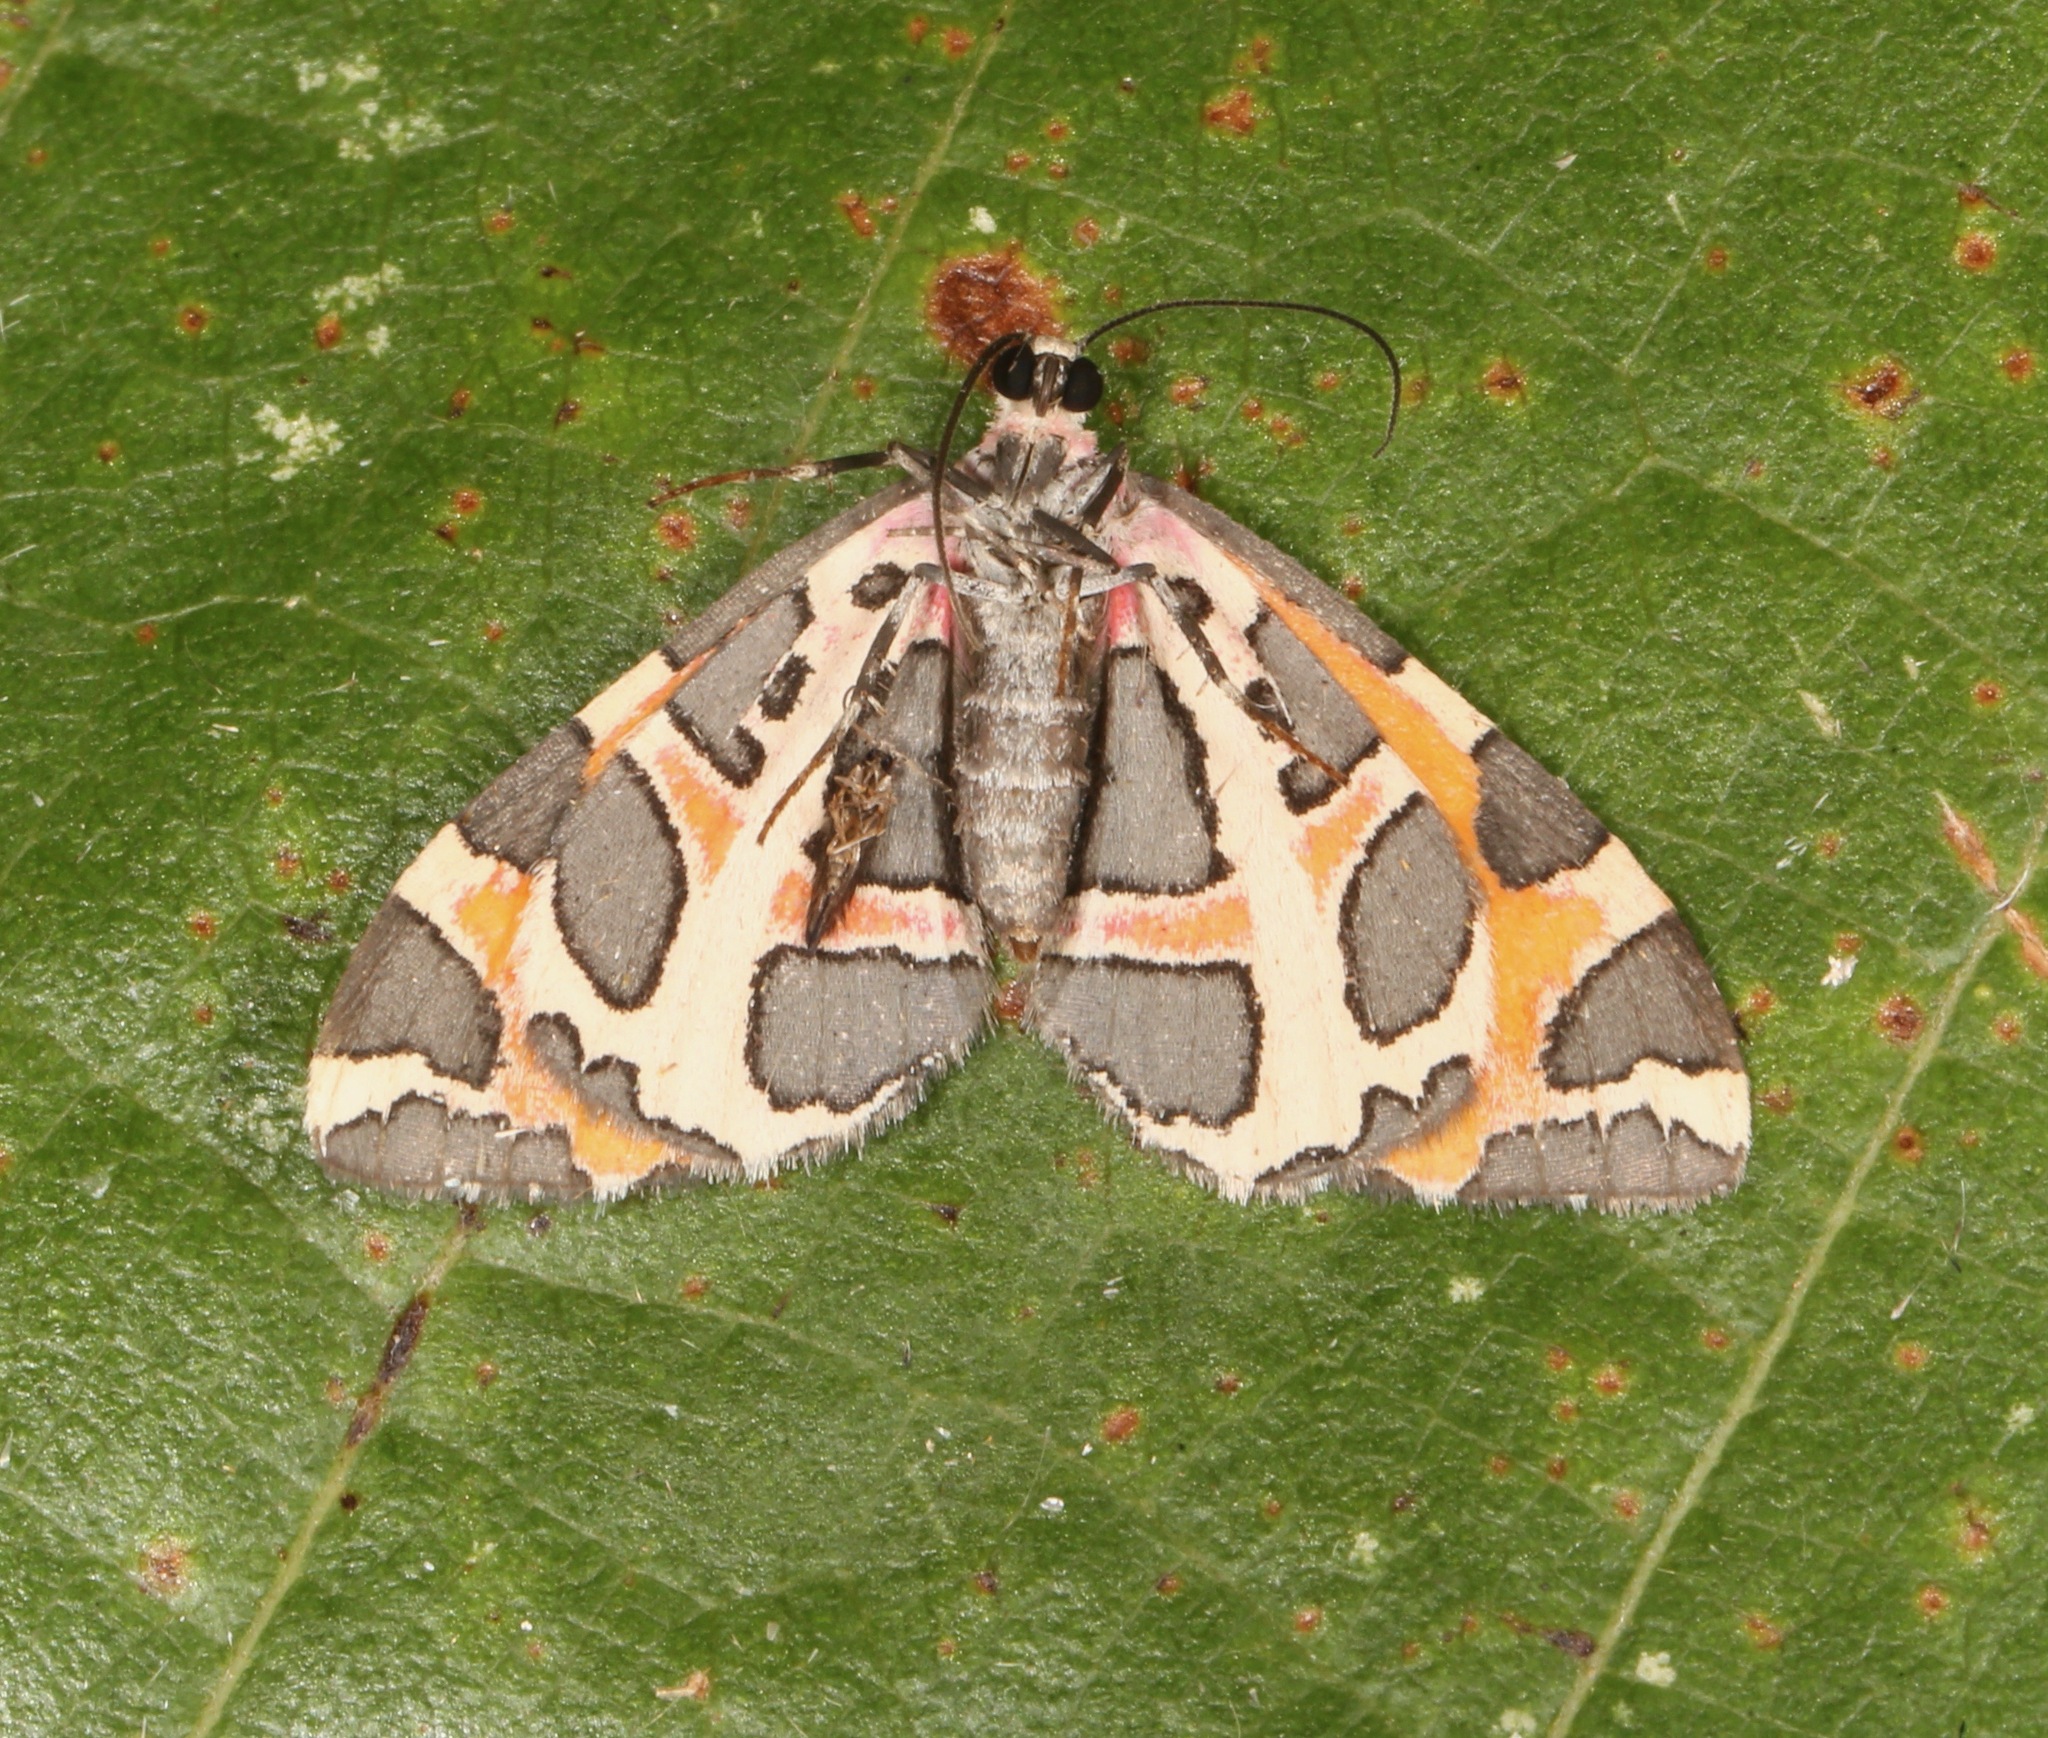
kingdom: Animalia
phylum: Arthropoda
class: Insecta
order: Lepidoptera
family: Geometridae
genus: Stamnodes
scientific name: Stamnodes deceptiva
